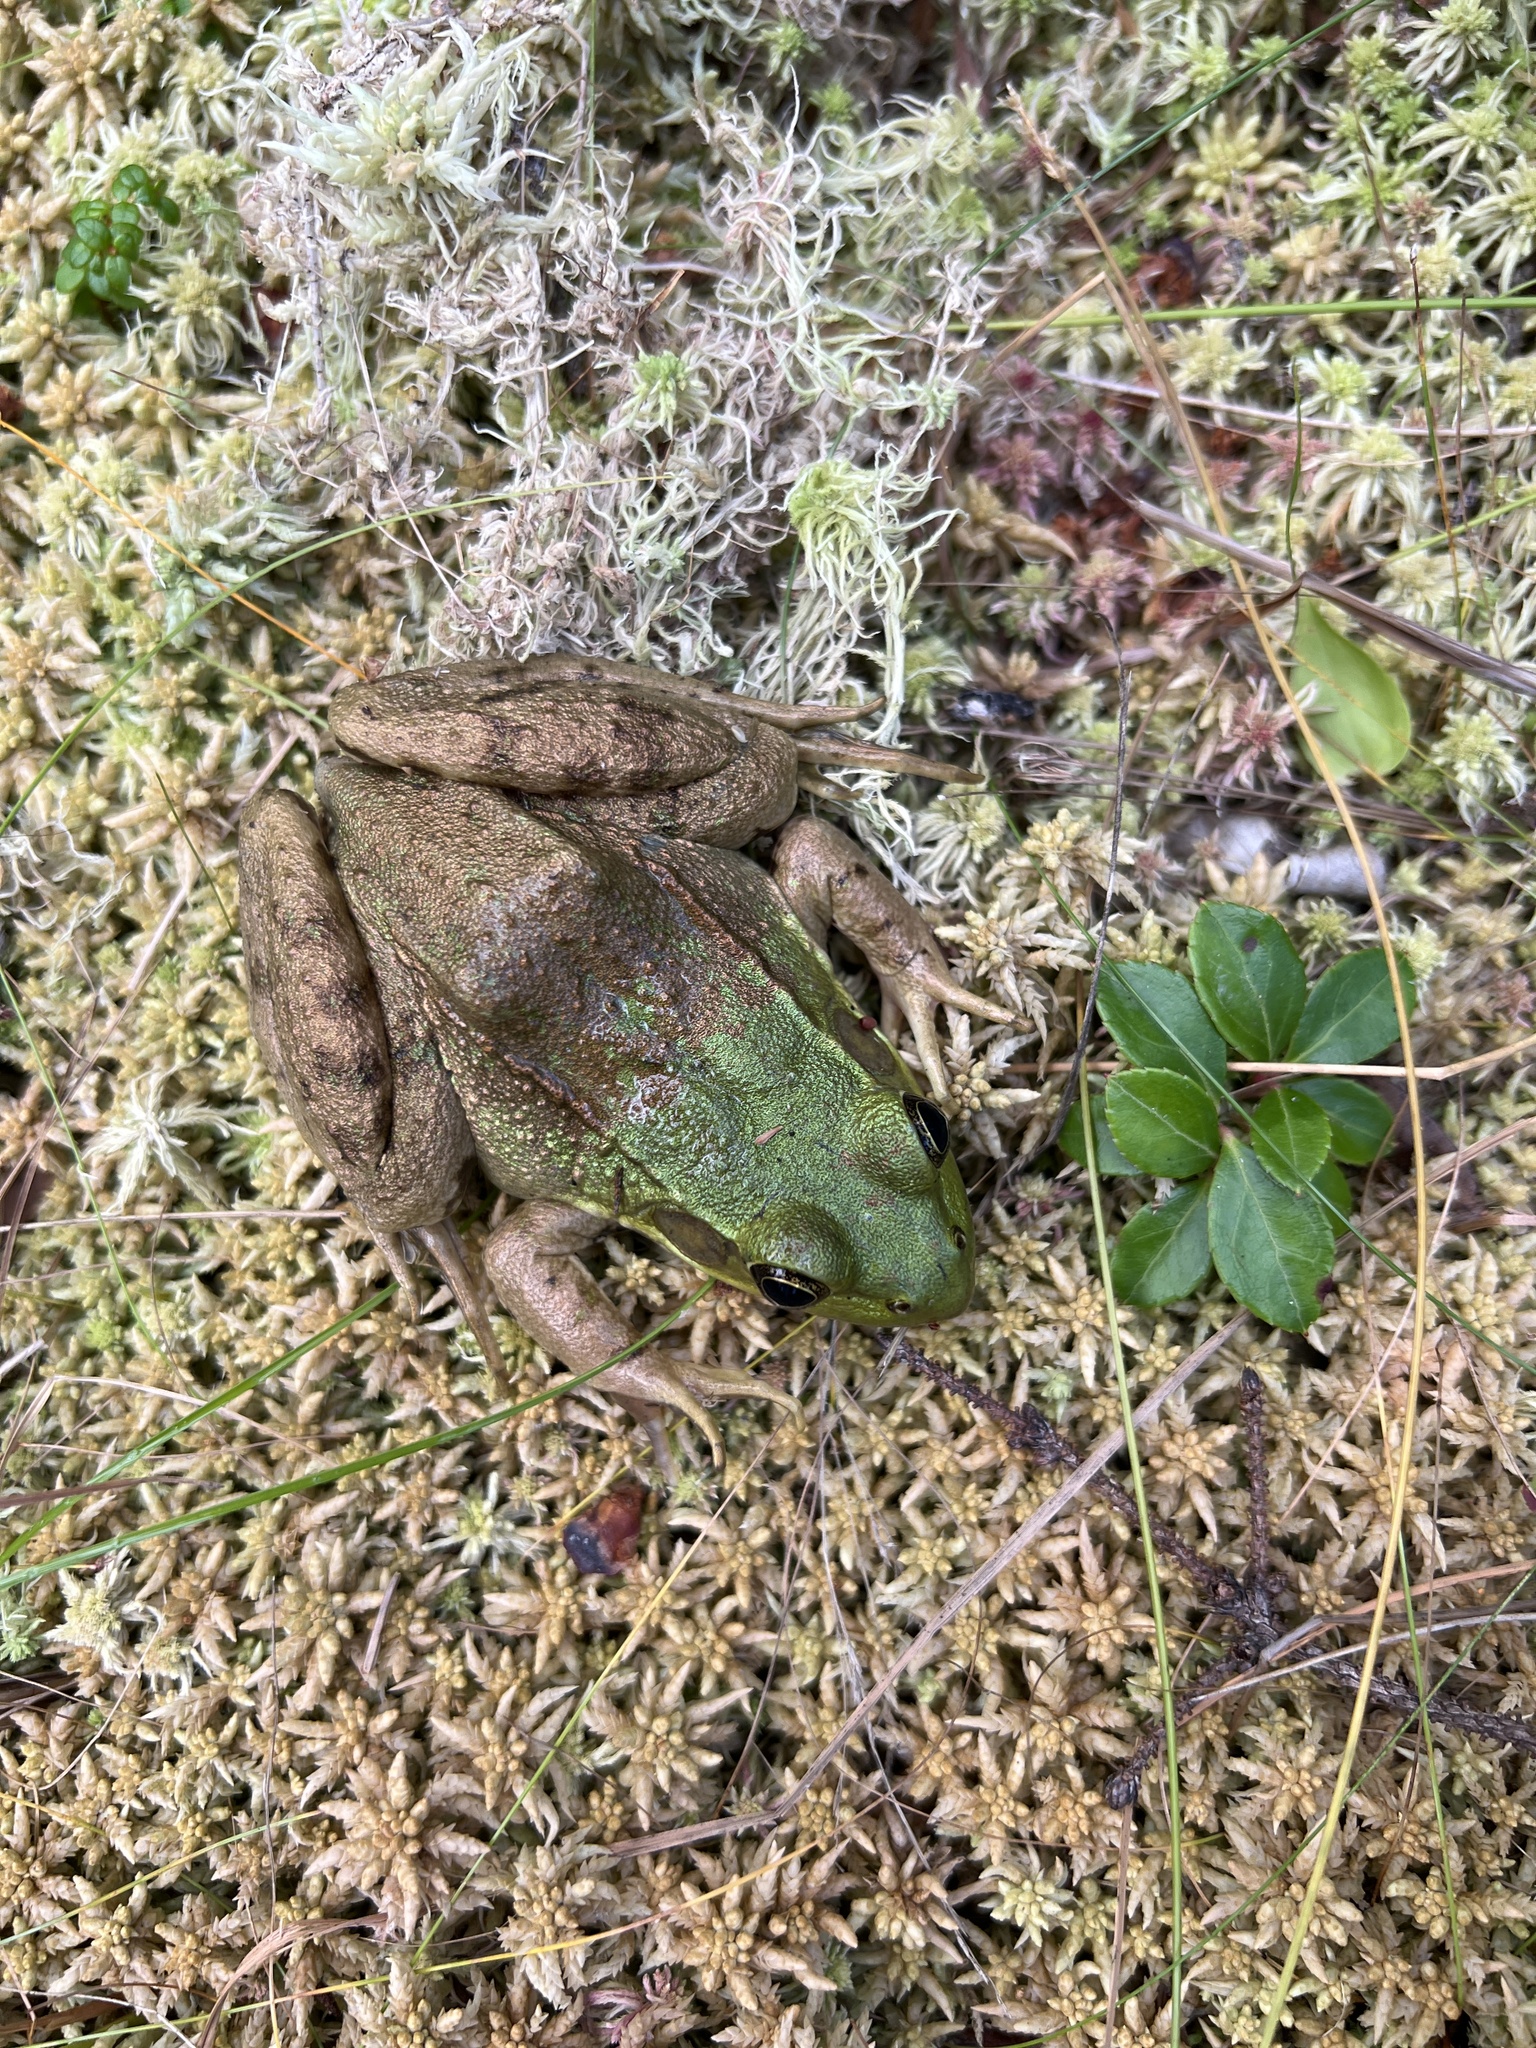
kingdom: Animalia
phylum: Chordata
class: Amphibia
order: Anura
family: Ranidae
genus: Lithobates
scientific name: Lithobates clamitans
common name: Green frog
